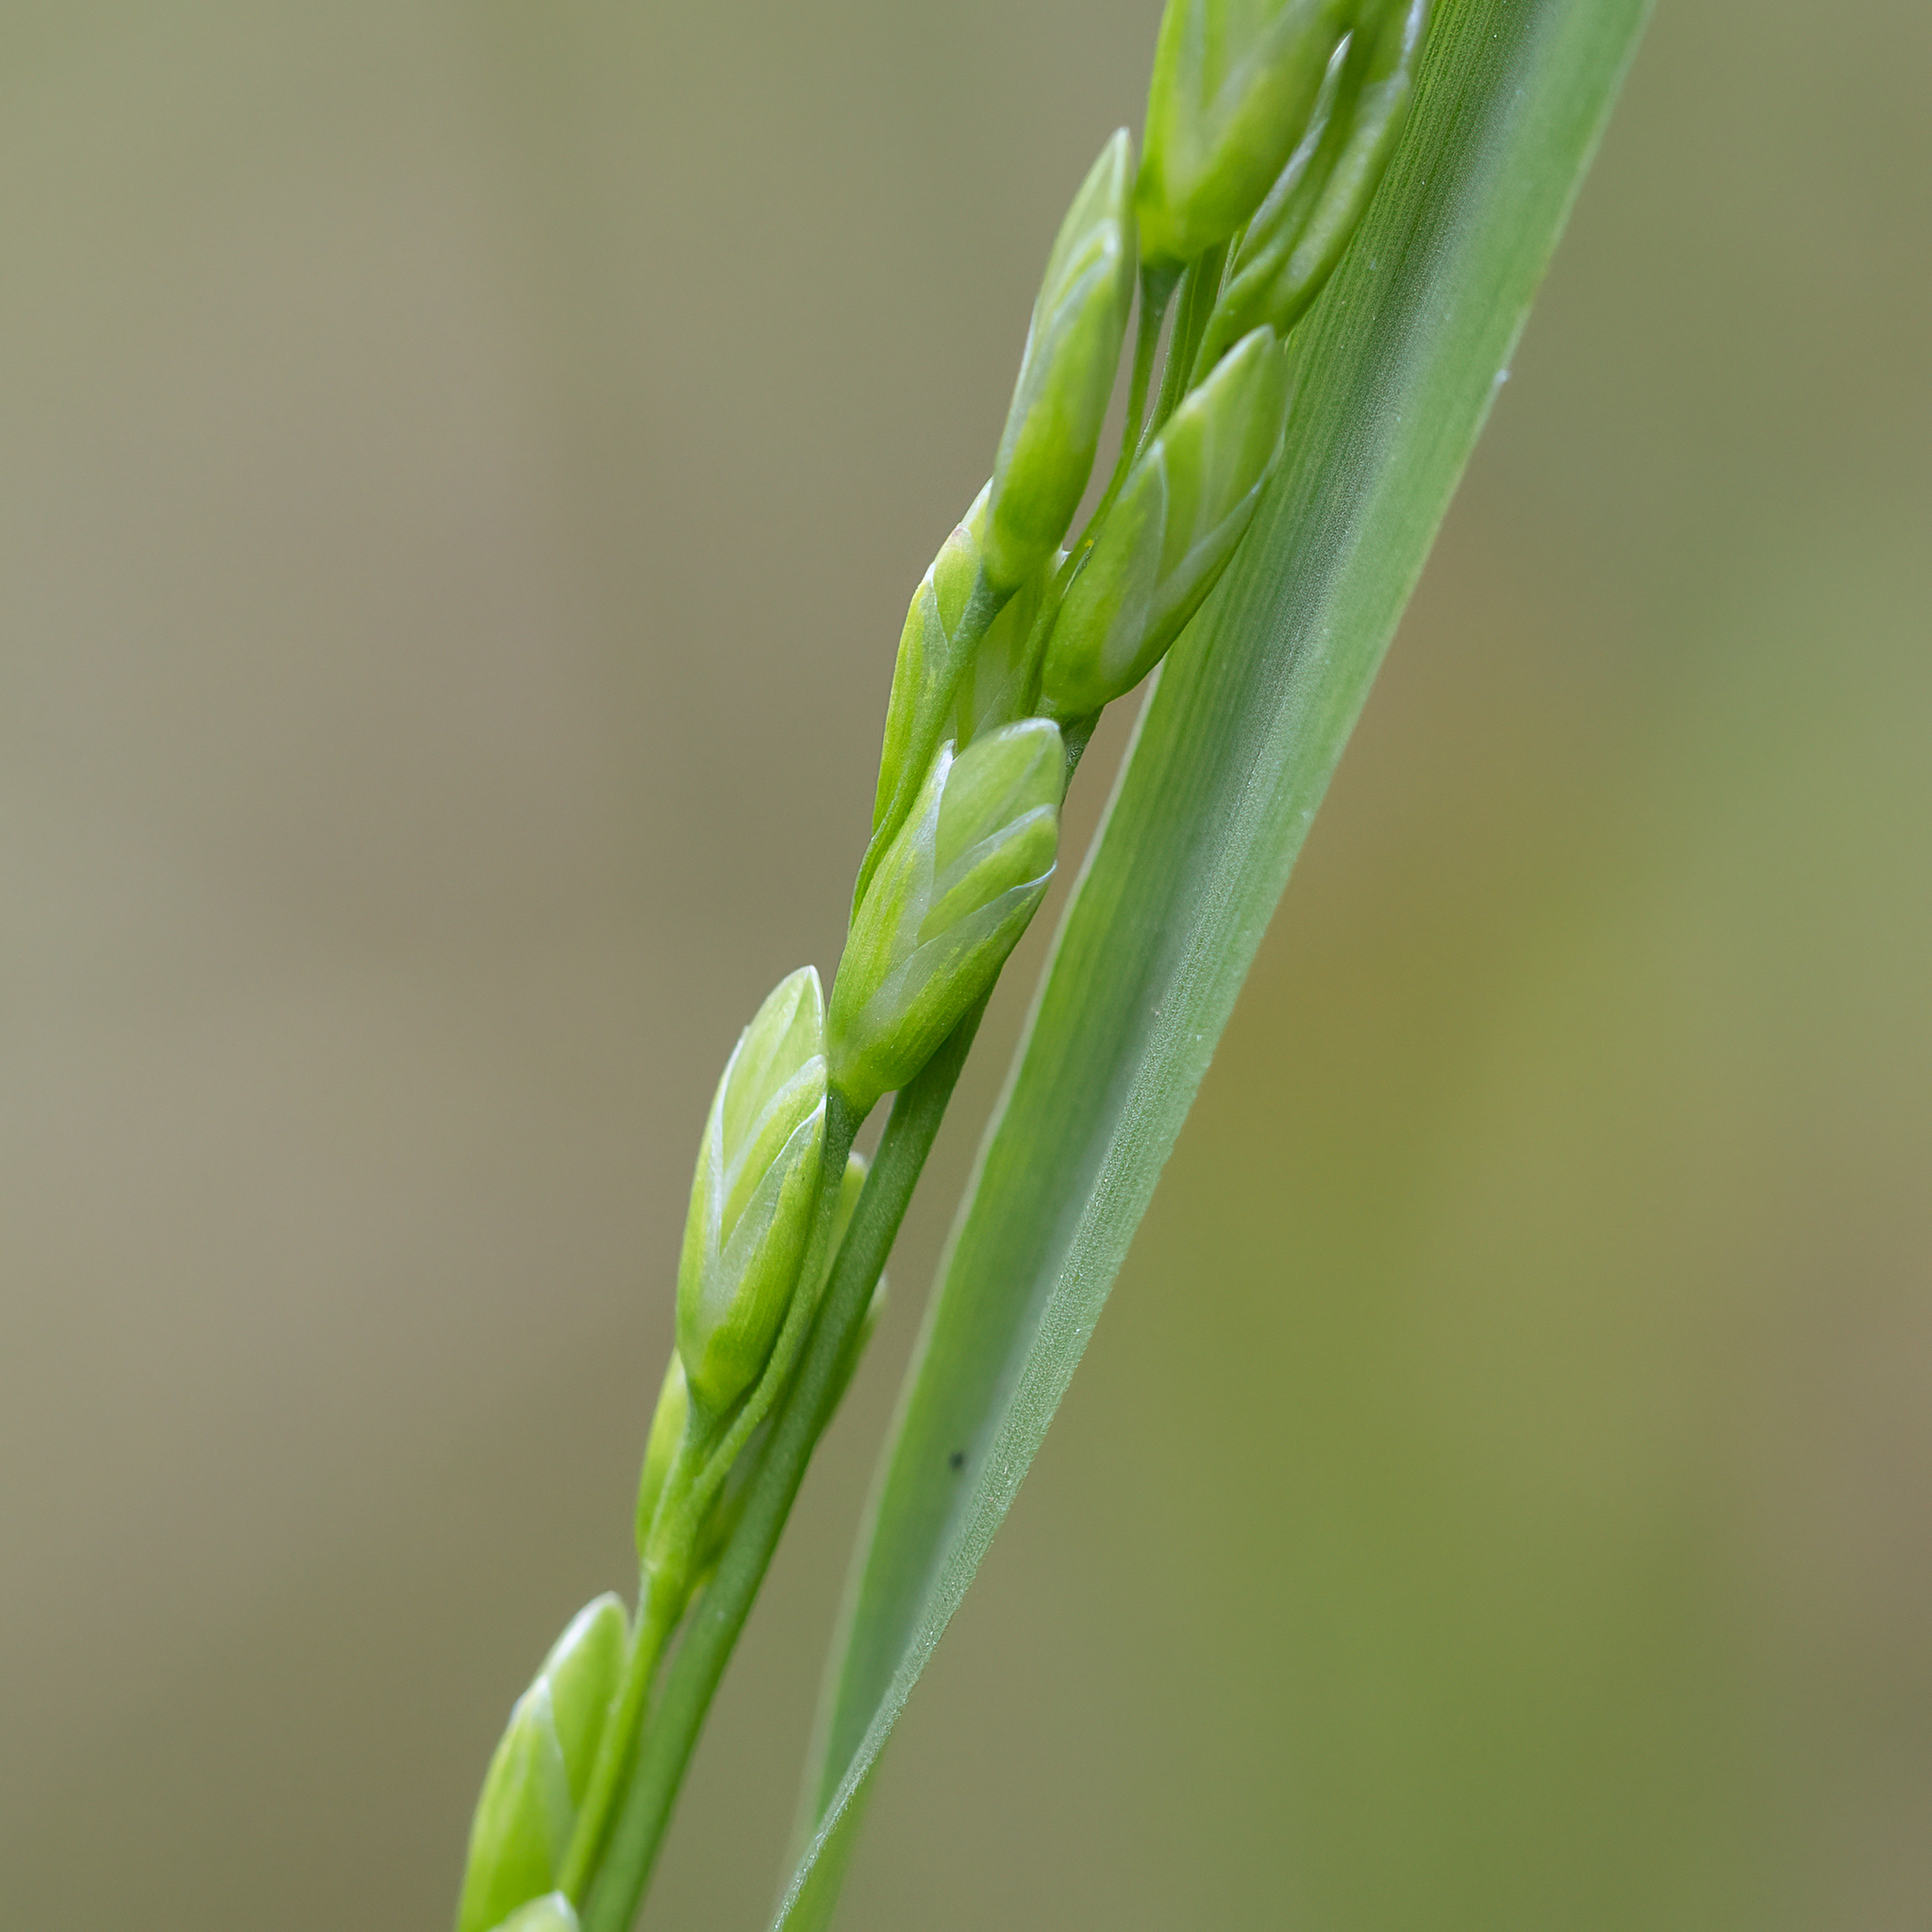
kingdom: Plantae
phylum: Tracheophyta
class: Liliopsida
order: Poales
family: Poaceae
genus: Tetrarrhena
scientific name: Tetrarrhena laevis
